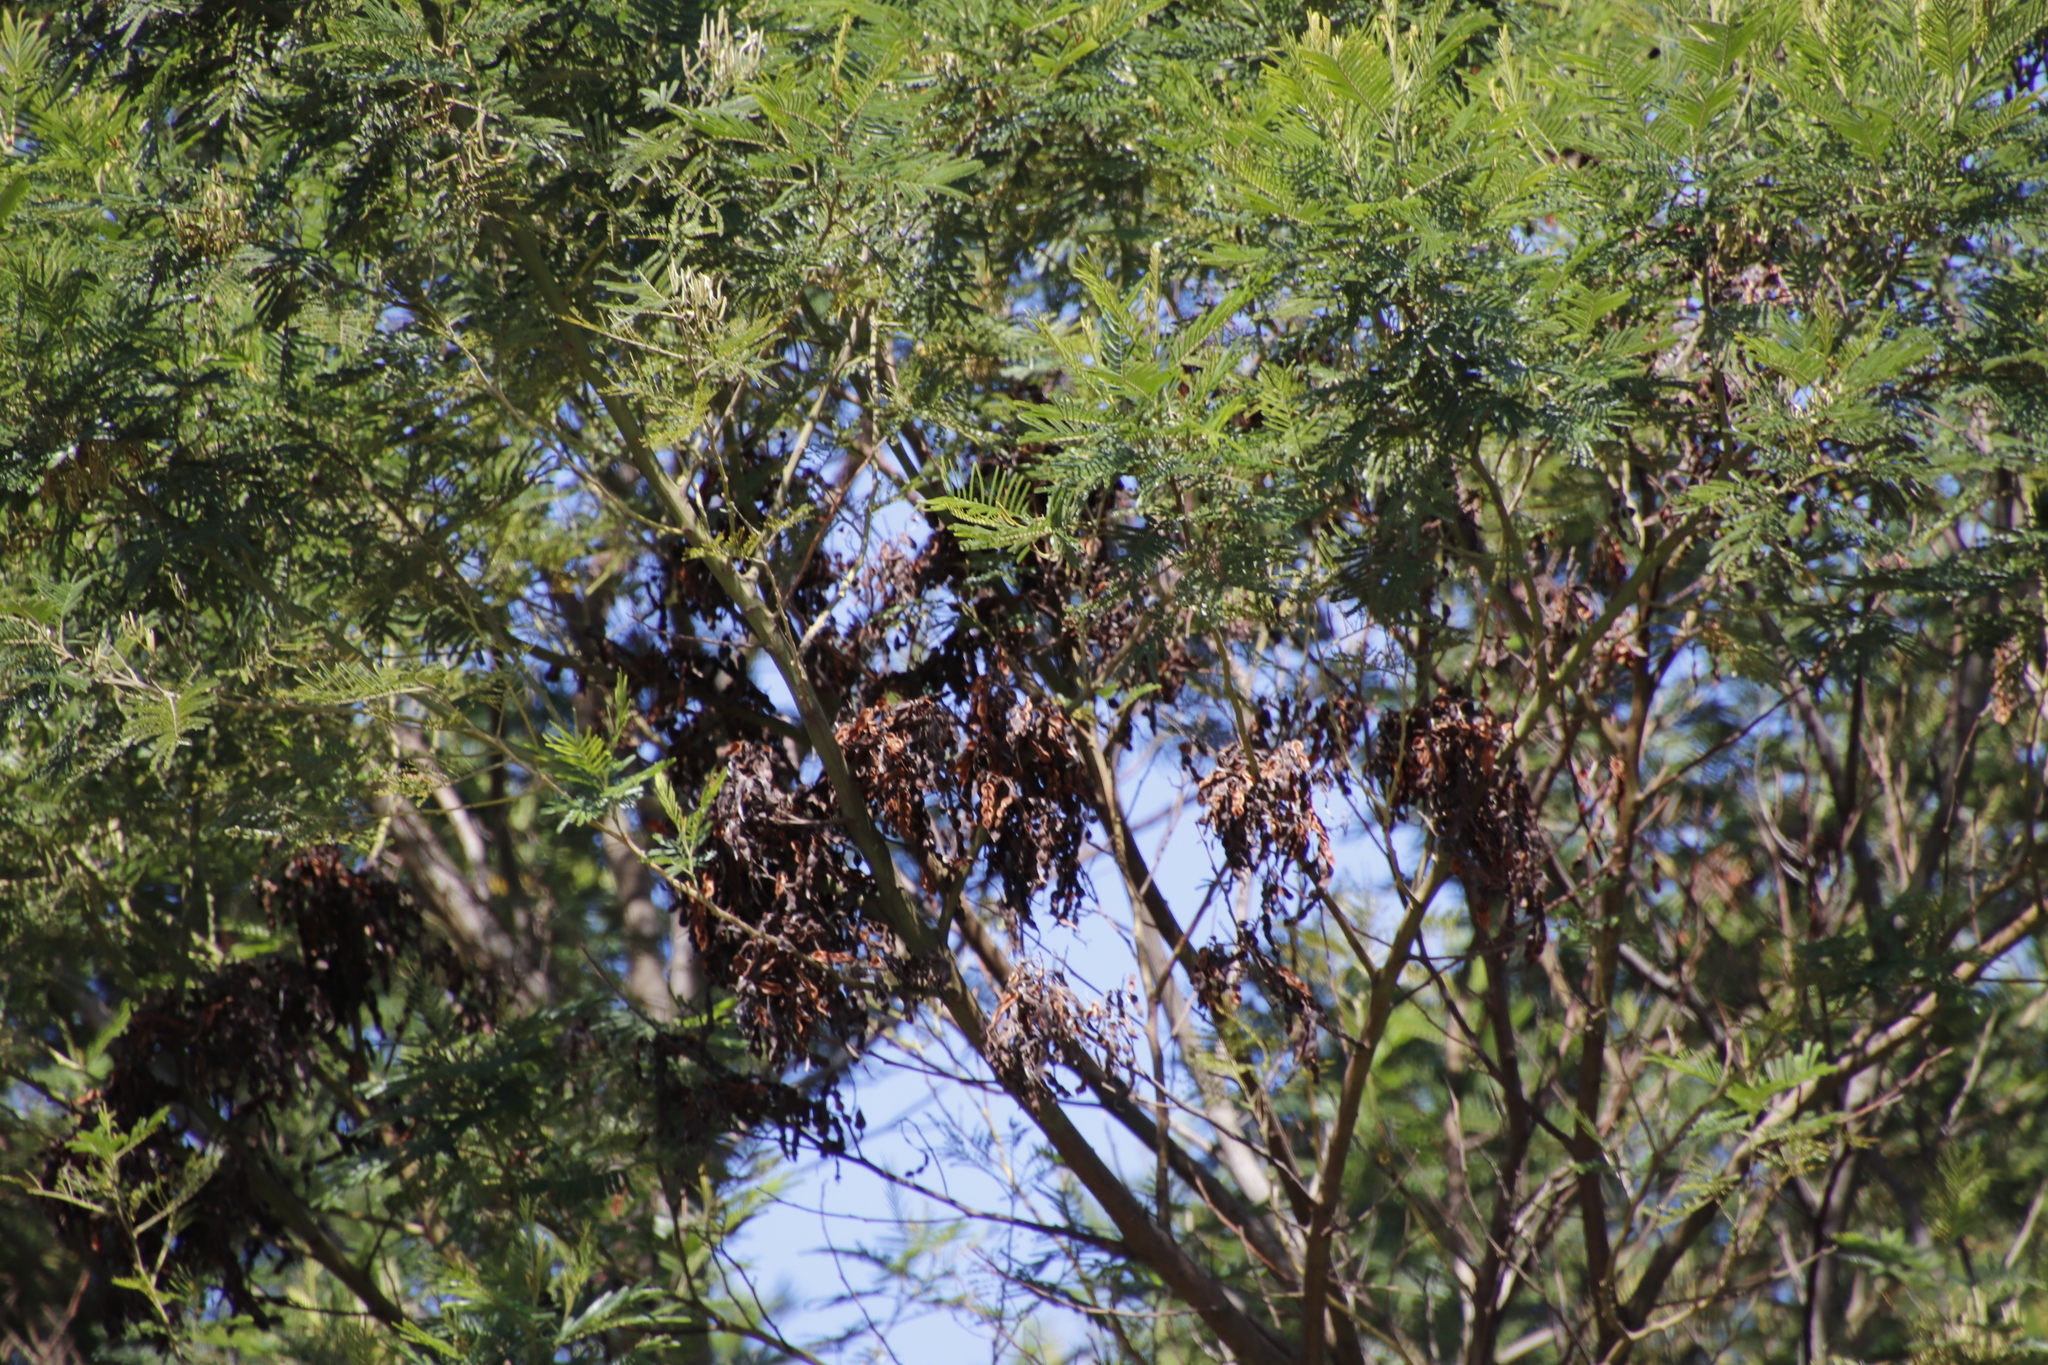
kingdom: Plantae
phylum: Tracheophyta
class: Magnoliopsida
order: Fabales
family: Fabaceae
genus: Acacia
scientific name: Acacia mearnsii
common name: Black wattle
